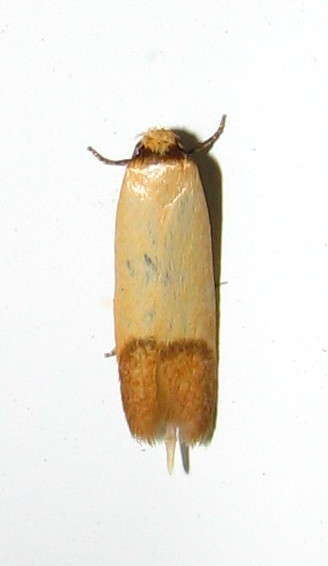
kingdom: Animalia
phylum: Arthropoda
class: Insecta
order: Lepidoptera
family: Oecophoridae
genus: Tachystola
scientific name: Tachystola stenoptera
